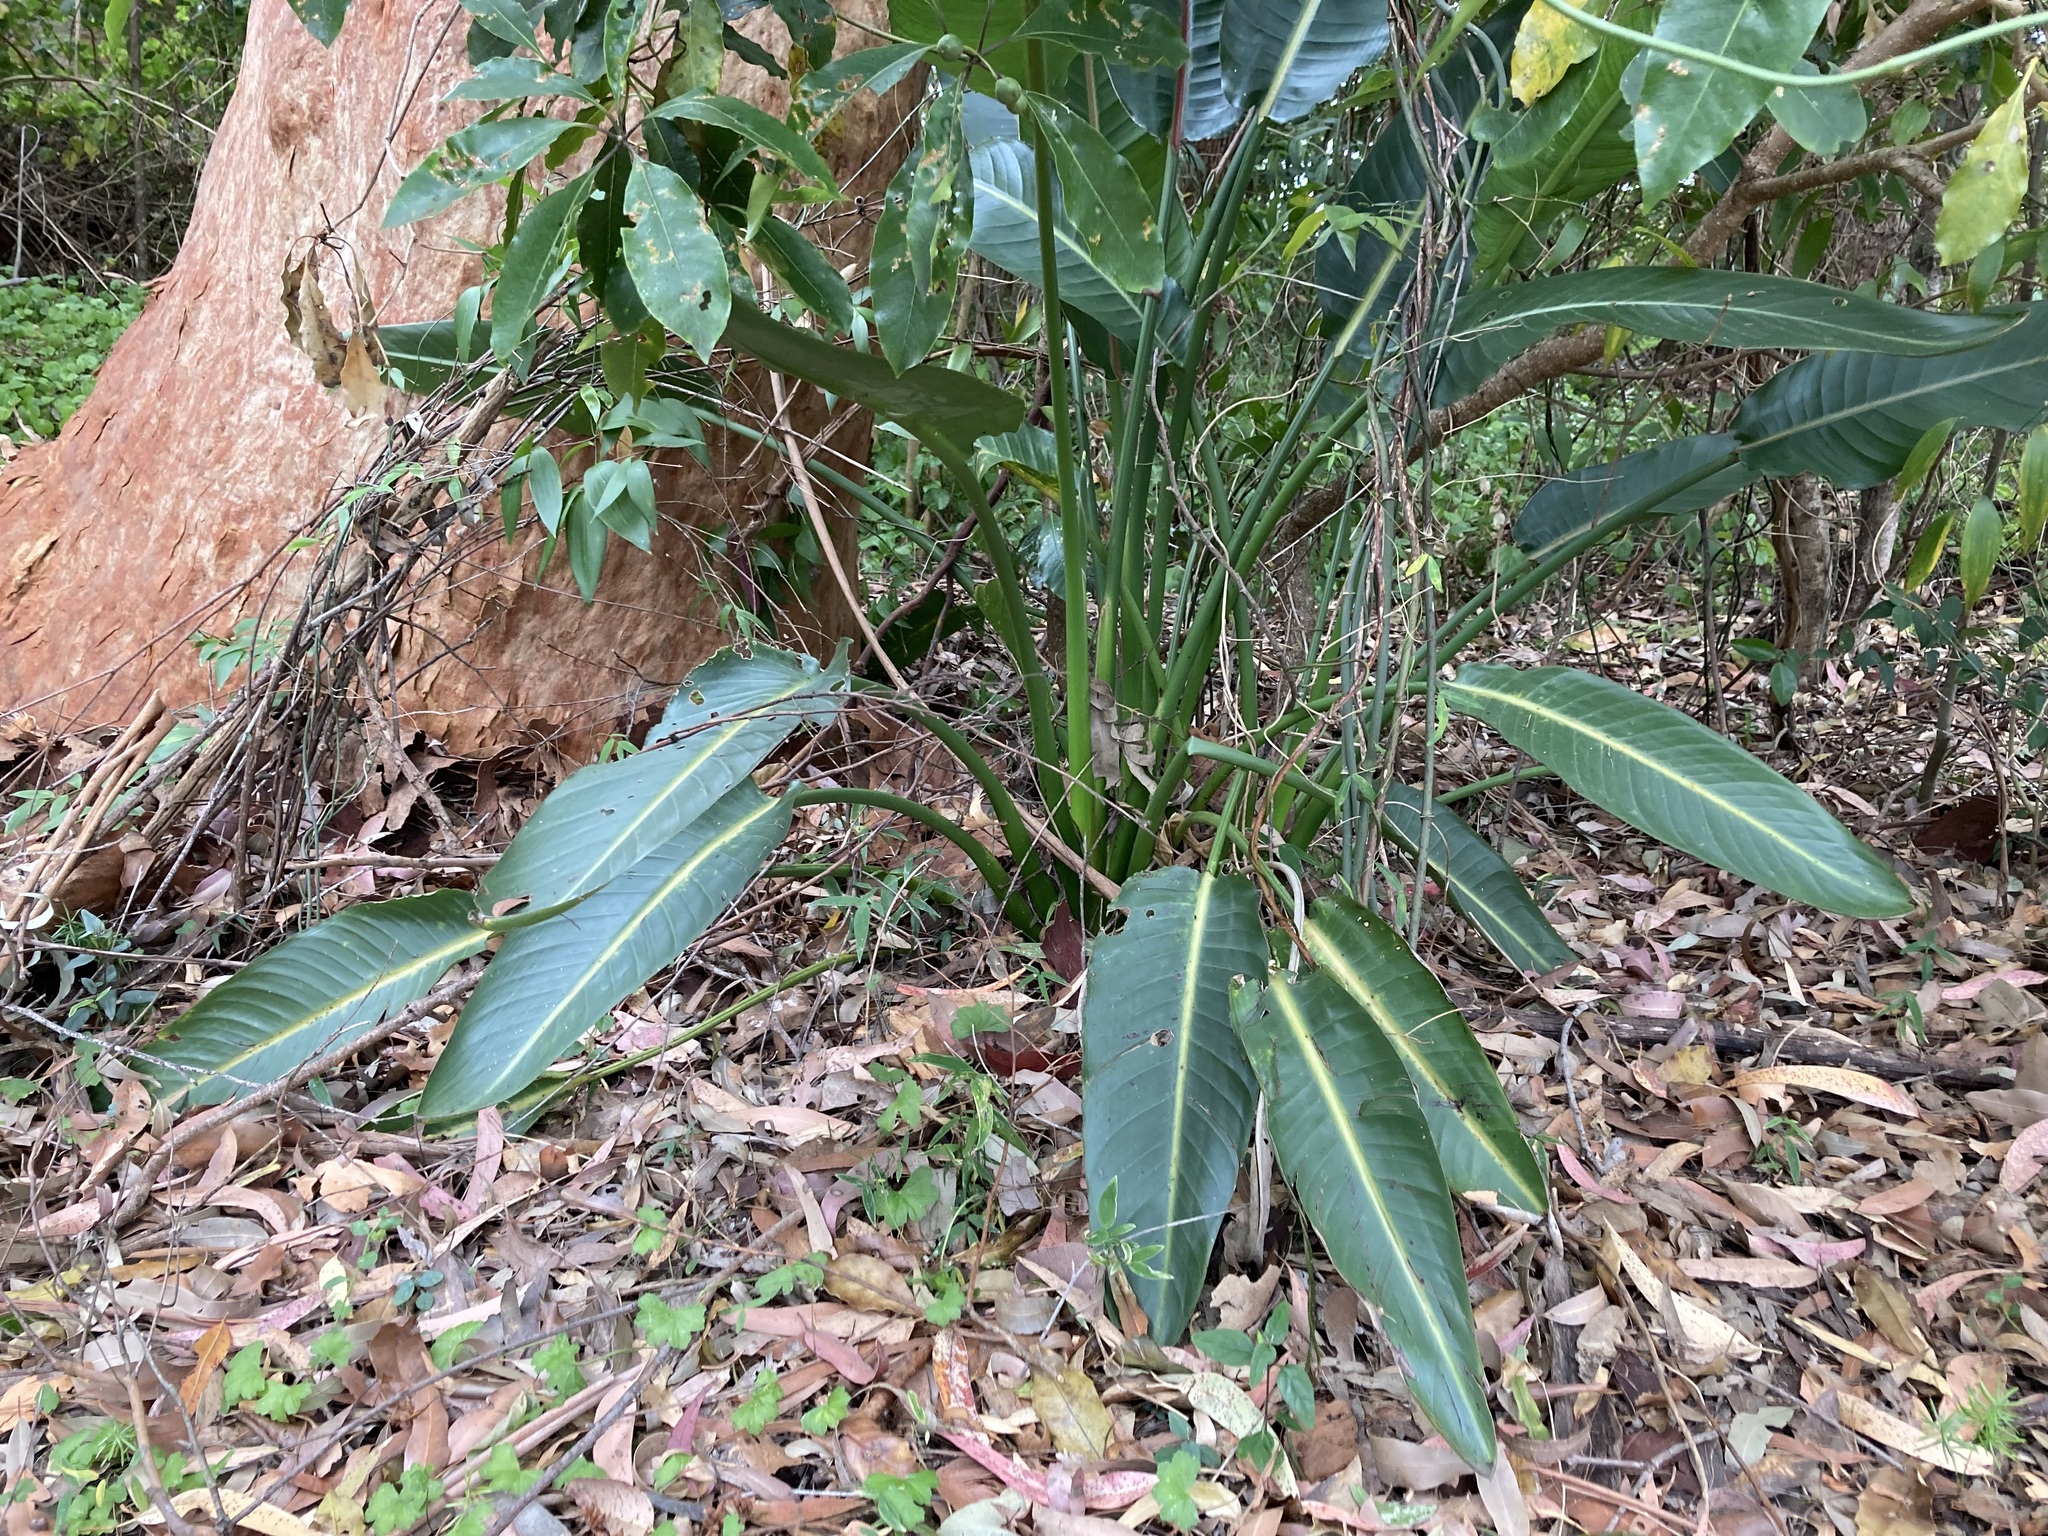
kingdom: Plantae
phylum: Tracheophyta
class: Liliopsida
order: Zingiberales
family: Strelitziaceae
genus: Strelitzia
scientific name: Strelitzia reginae
